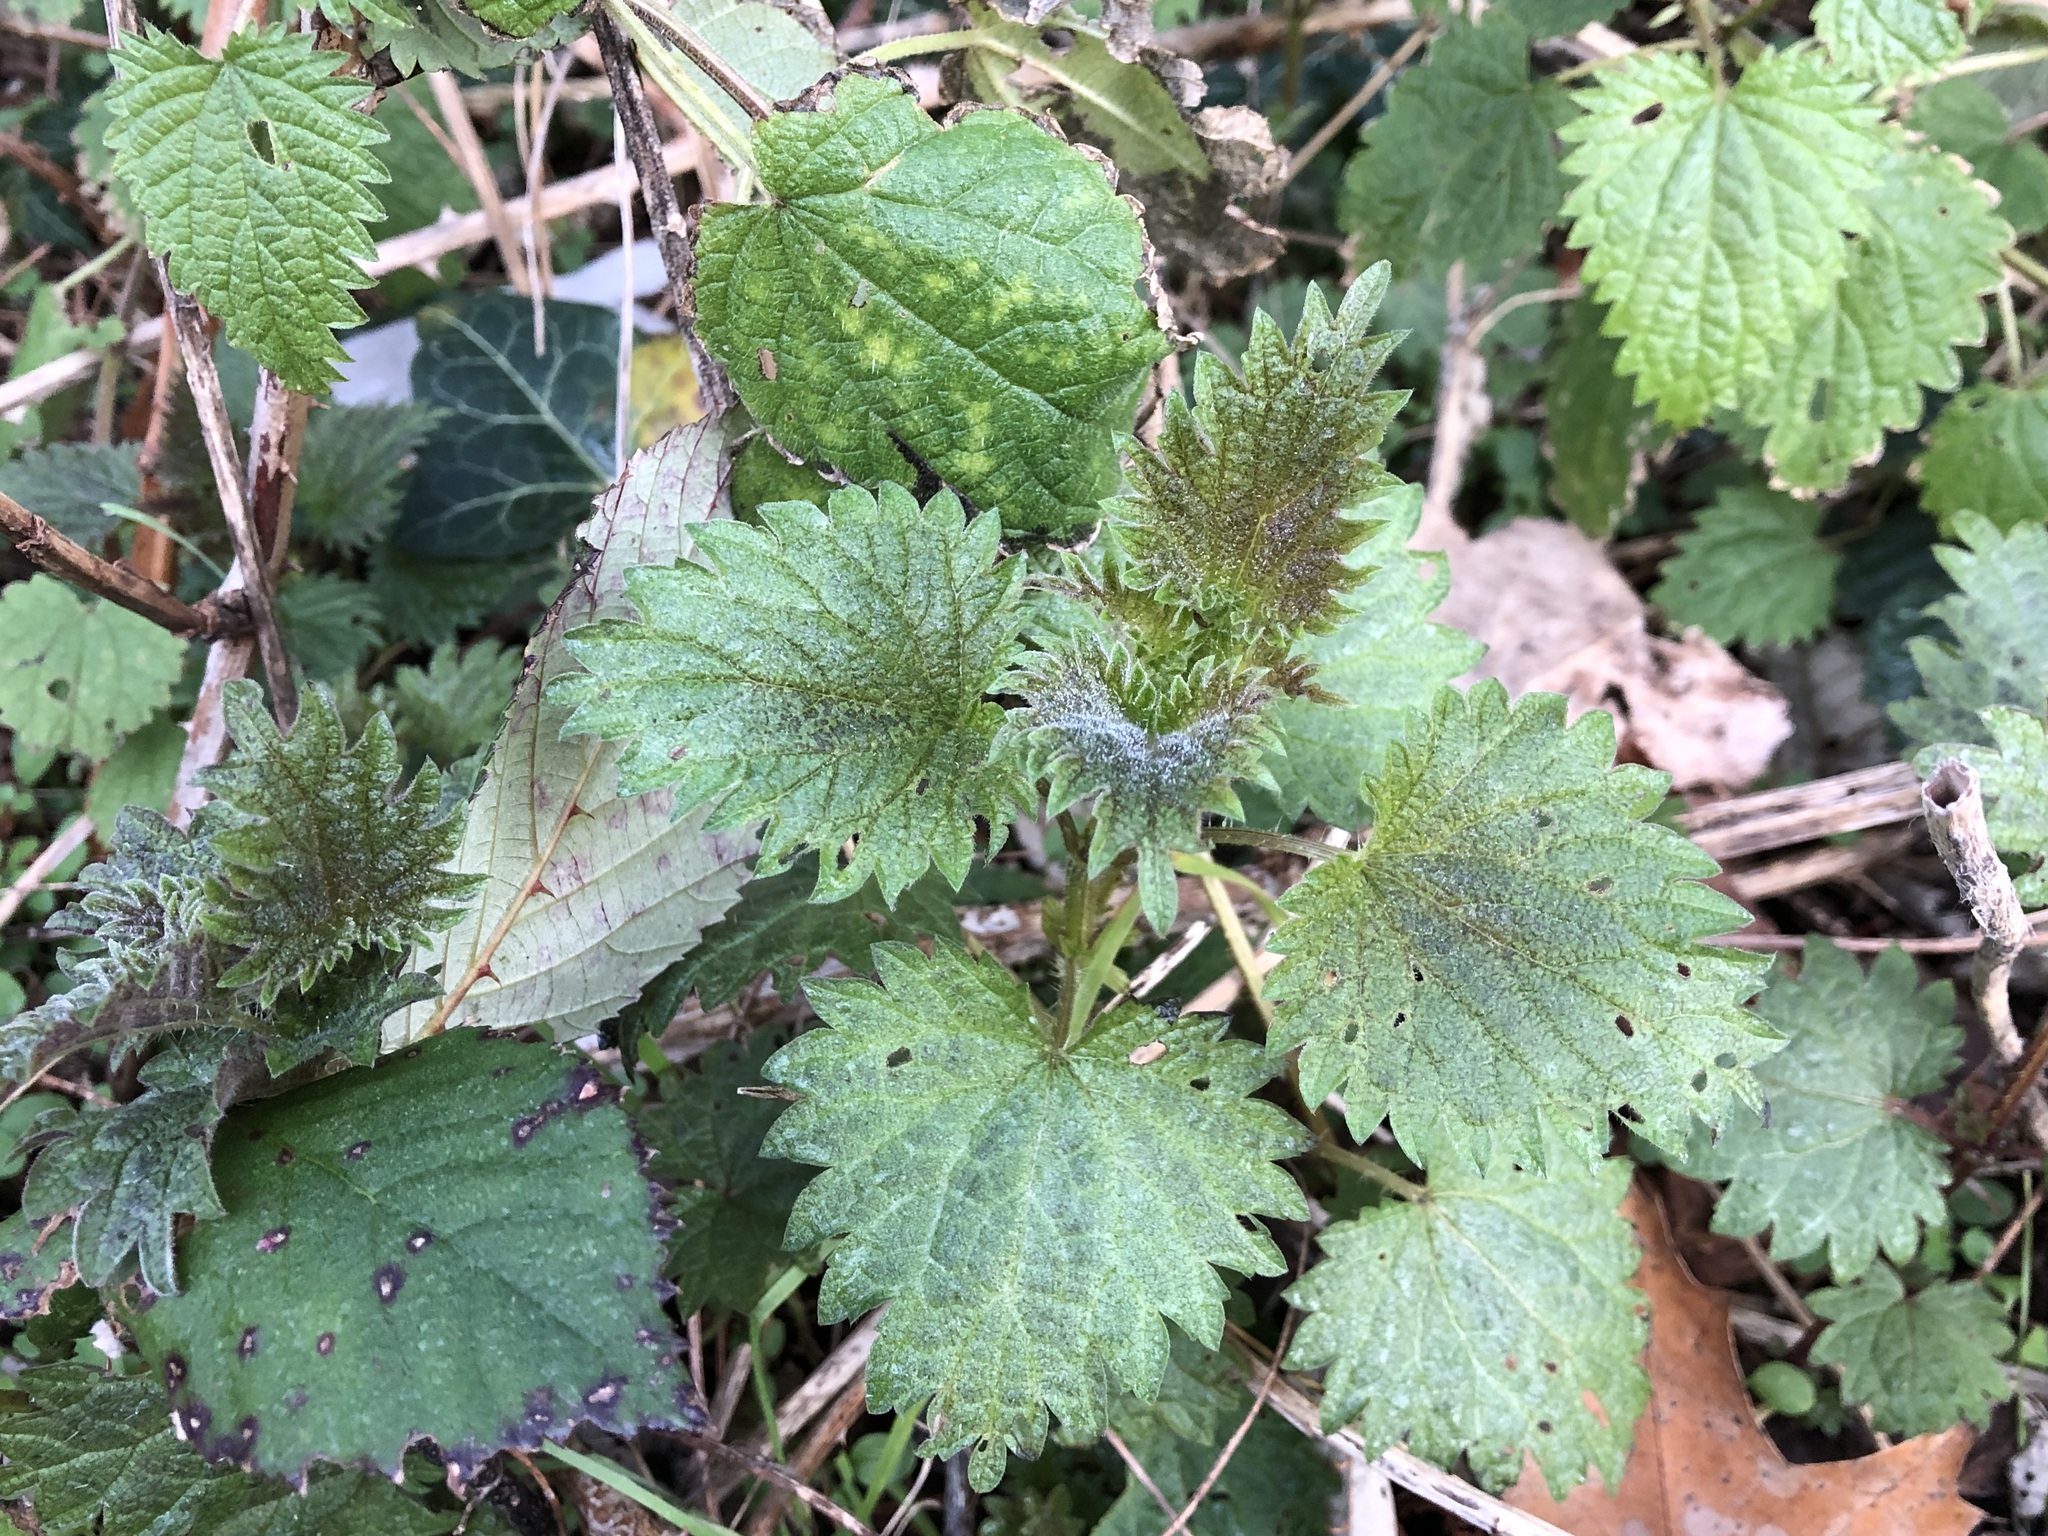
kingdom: Plantae
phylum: Tracheophyta
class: Magnoliopsida
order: Rosales
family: Urticaceae
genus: Urtica
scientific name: Urtica dioica
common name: Common nettle
